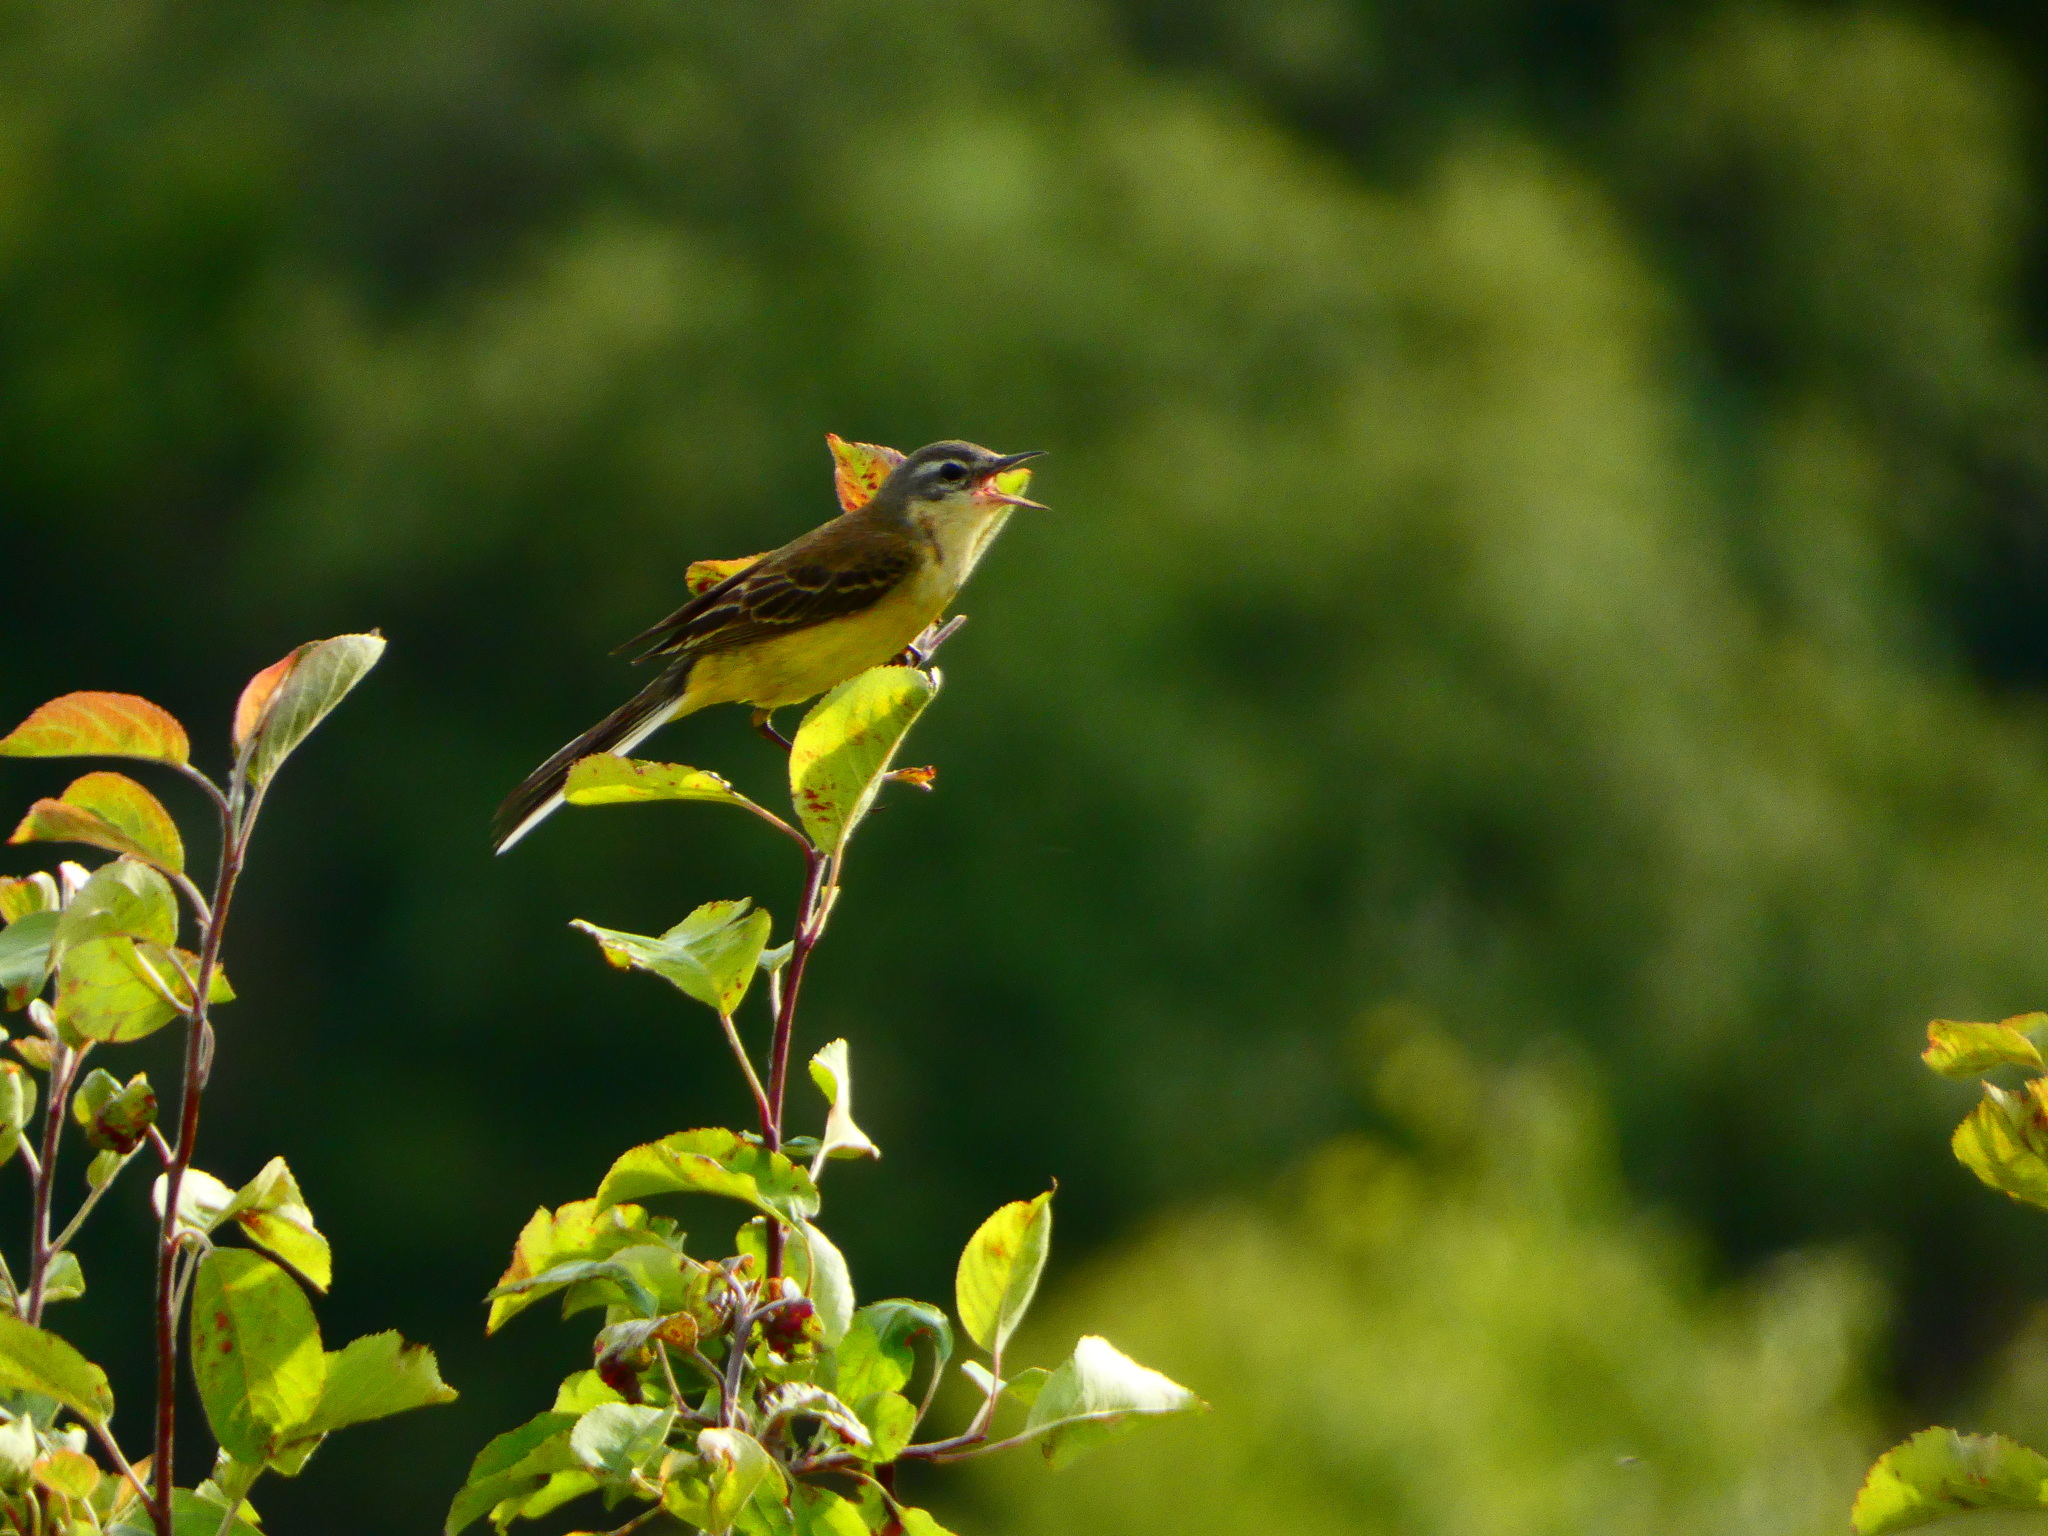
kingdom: Animalia
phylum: Chordata
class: Aves
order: Passeriformes
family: Motacillidae
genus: Motacilla
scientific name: Motacilla flava
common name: Western yellow wagtail
